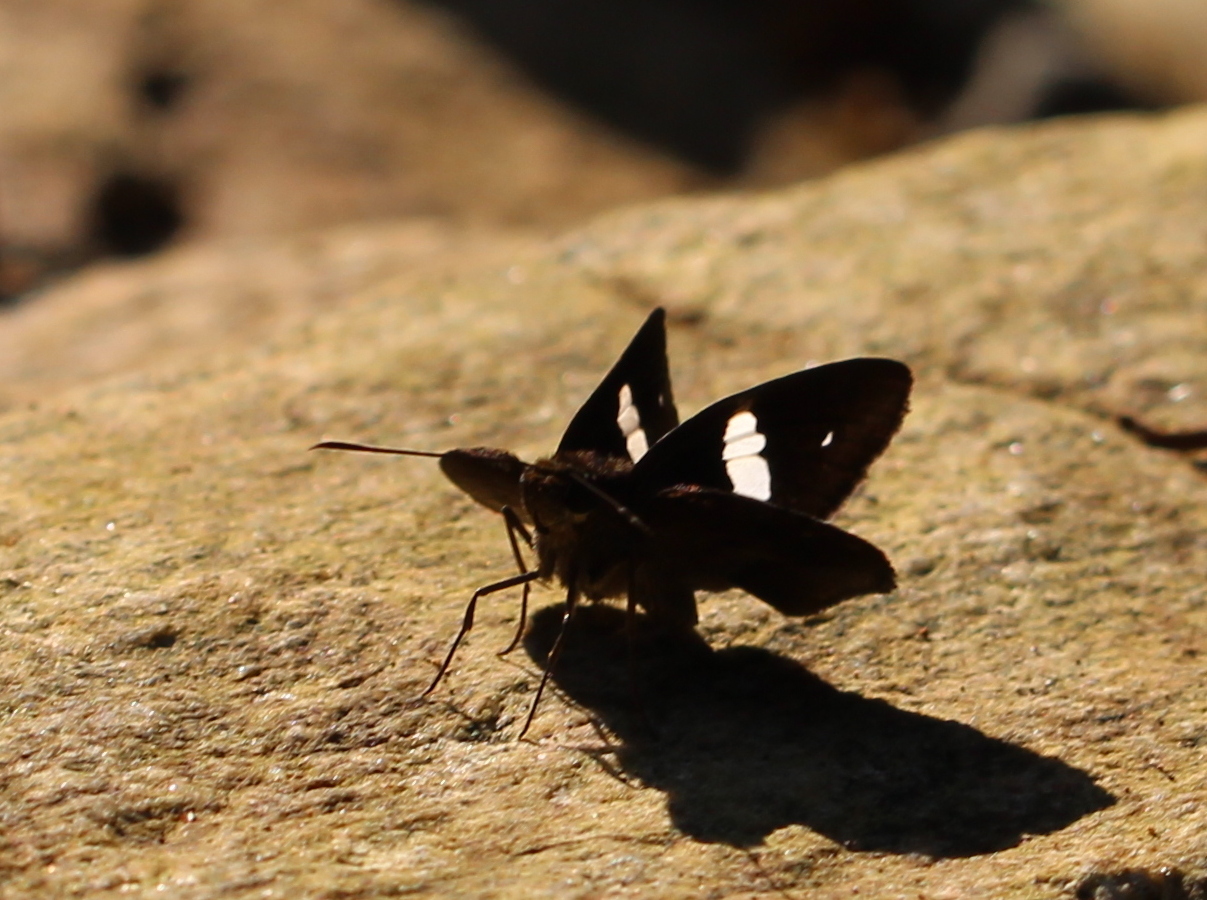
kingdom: Animalia
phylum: Arthropoda
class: Insecta
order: Lepidoptera
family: Hesperiidae
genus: Notocrypta
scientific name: Notocrypta paralysos
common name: Common banded demon
